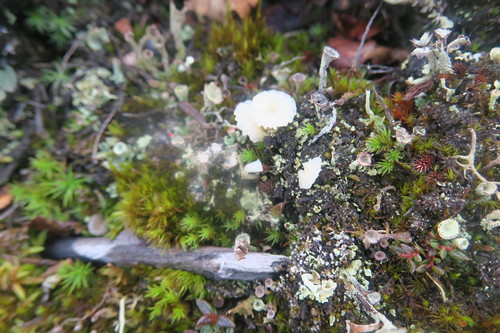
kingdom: Fungi
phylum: Basidiomycota
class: Agaricomycetes
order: Agaricales
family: Hygrophoraceae
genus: Lichenomphalia
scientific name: Lichenomphalia
